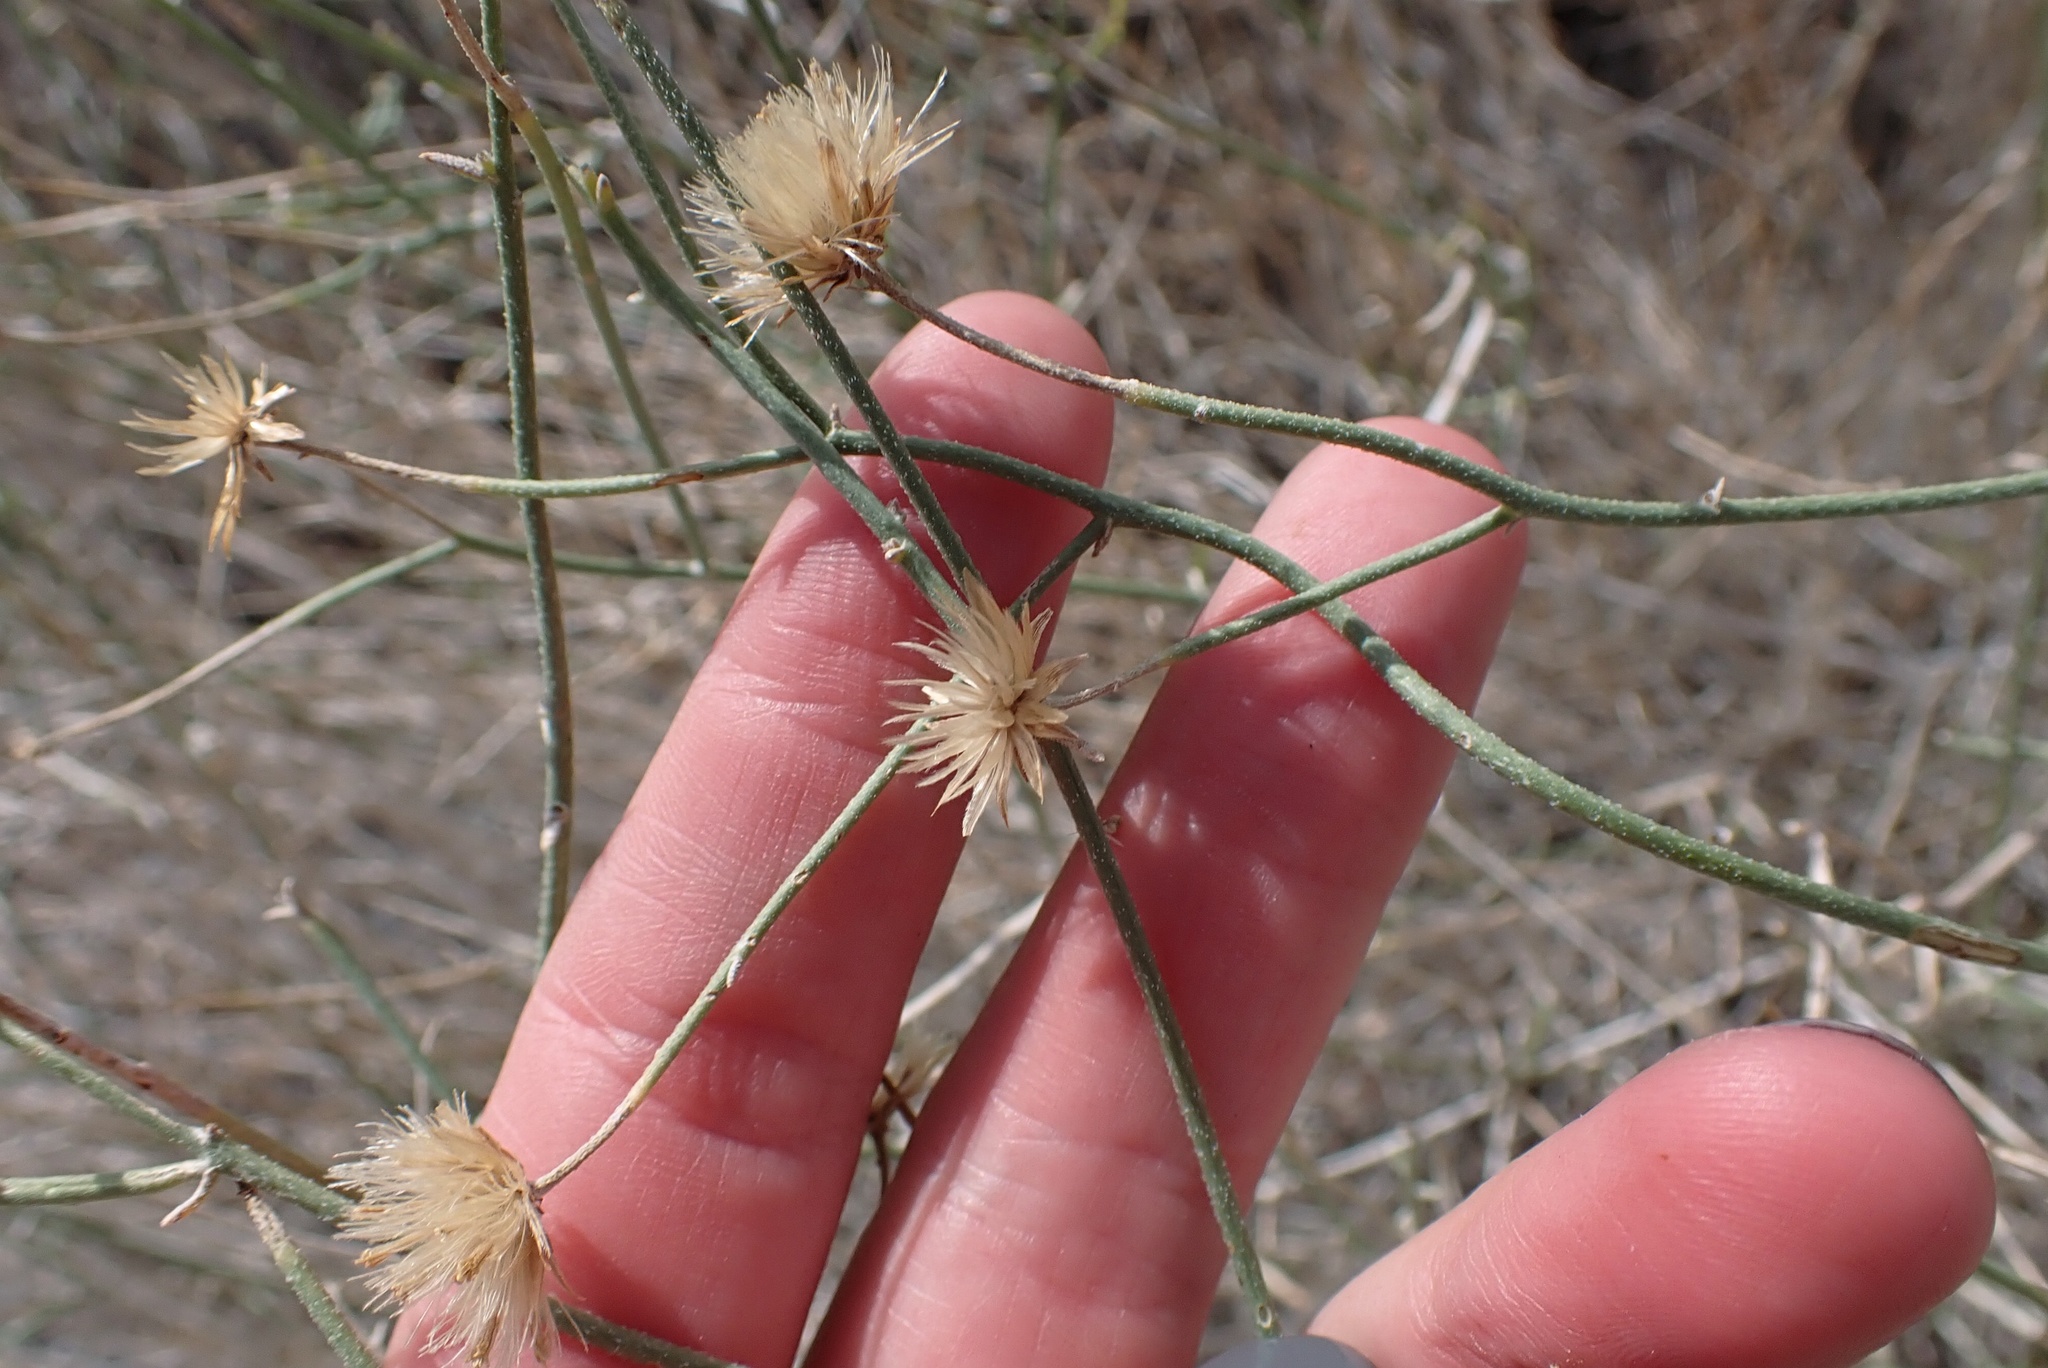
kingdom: Plantae
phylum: Tracheophyta
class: Magnoliopsida
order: Asterales
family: Asteraceae
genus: Bebbia
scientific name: Bebbia juncea
